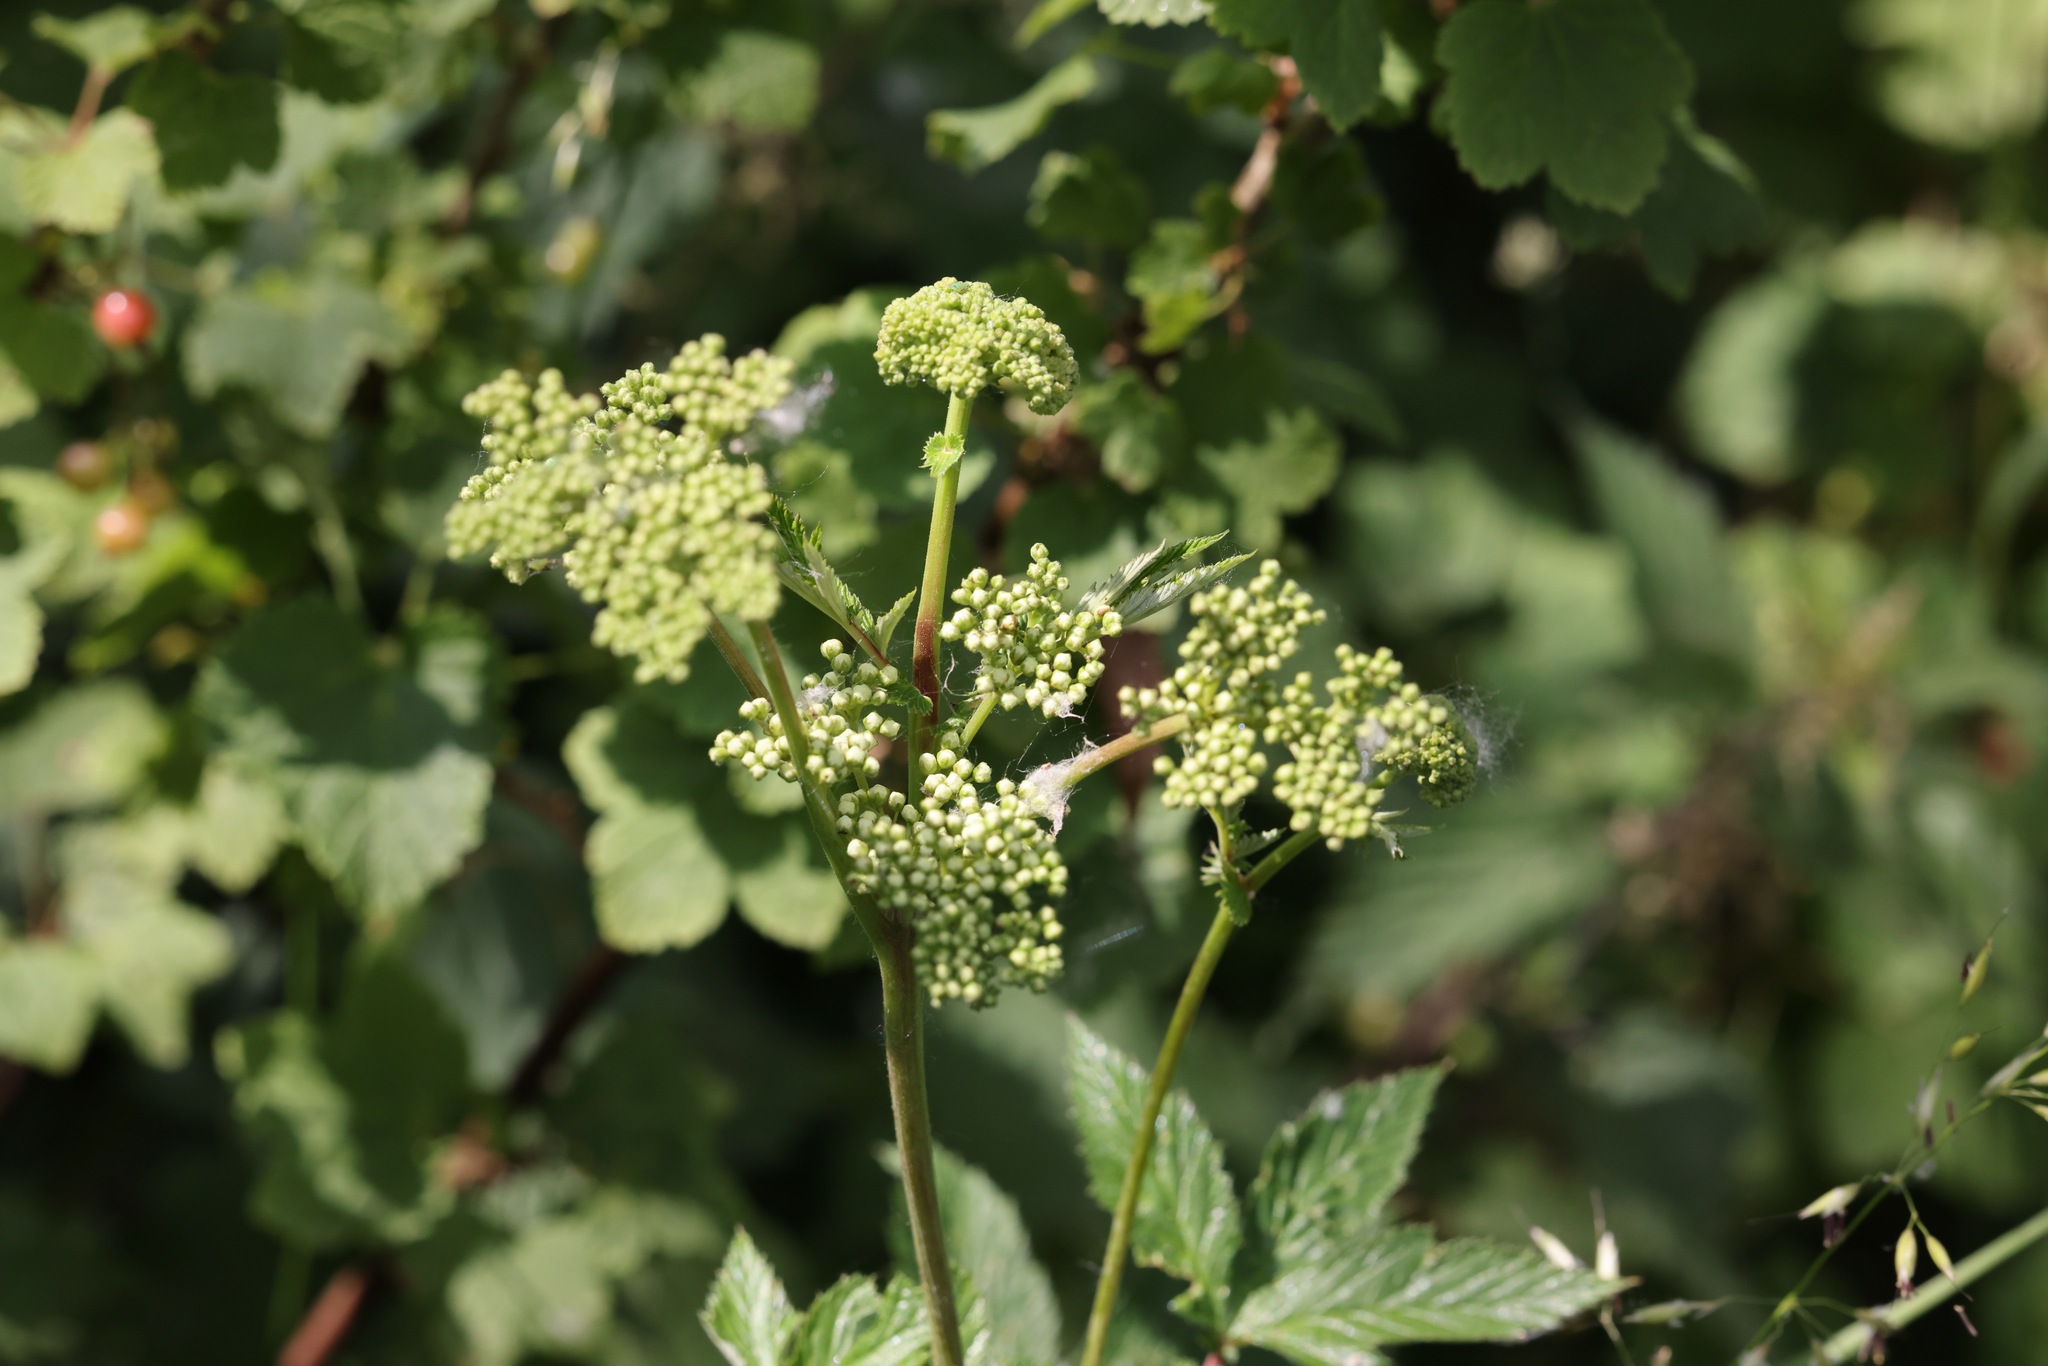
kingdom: Plantae
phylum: Tracheophyta
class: Magnoliopsida
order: Rosales
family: Rosaceae
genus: Filipendula
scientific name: Filipendula ulmaria
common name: Meadowsweet
